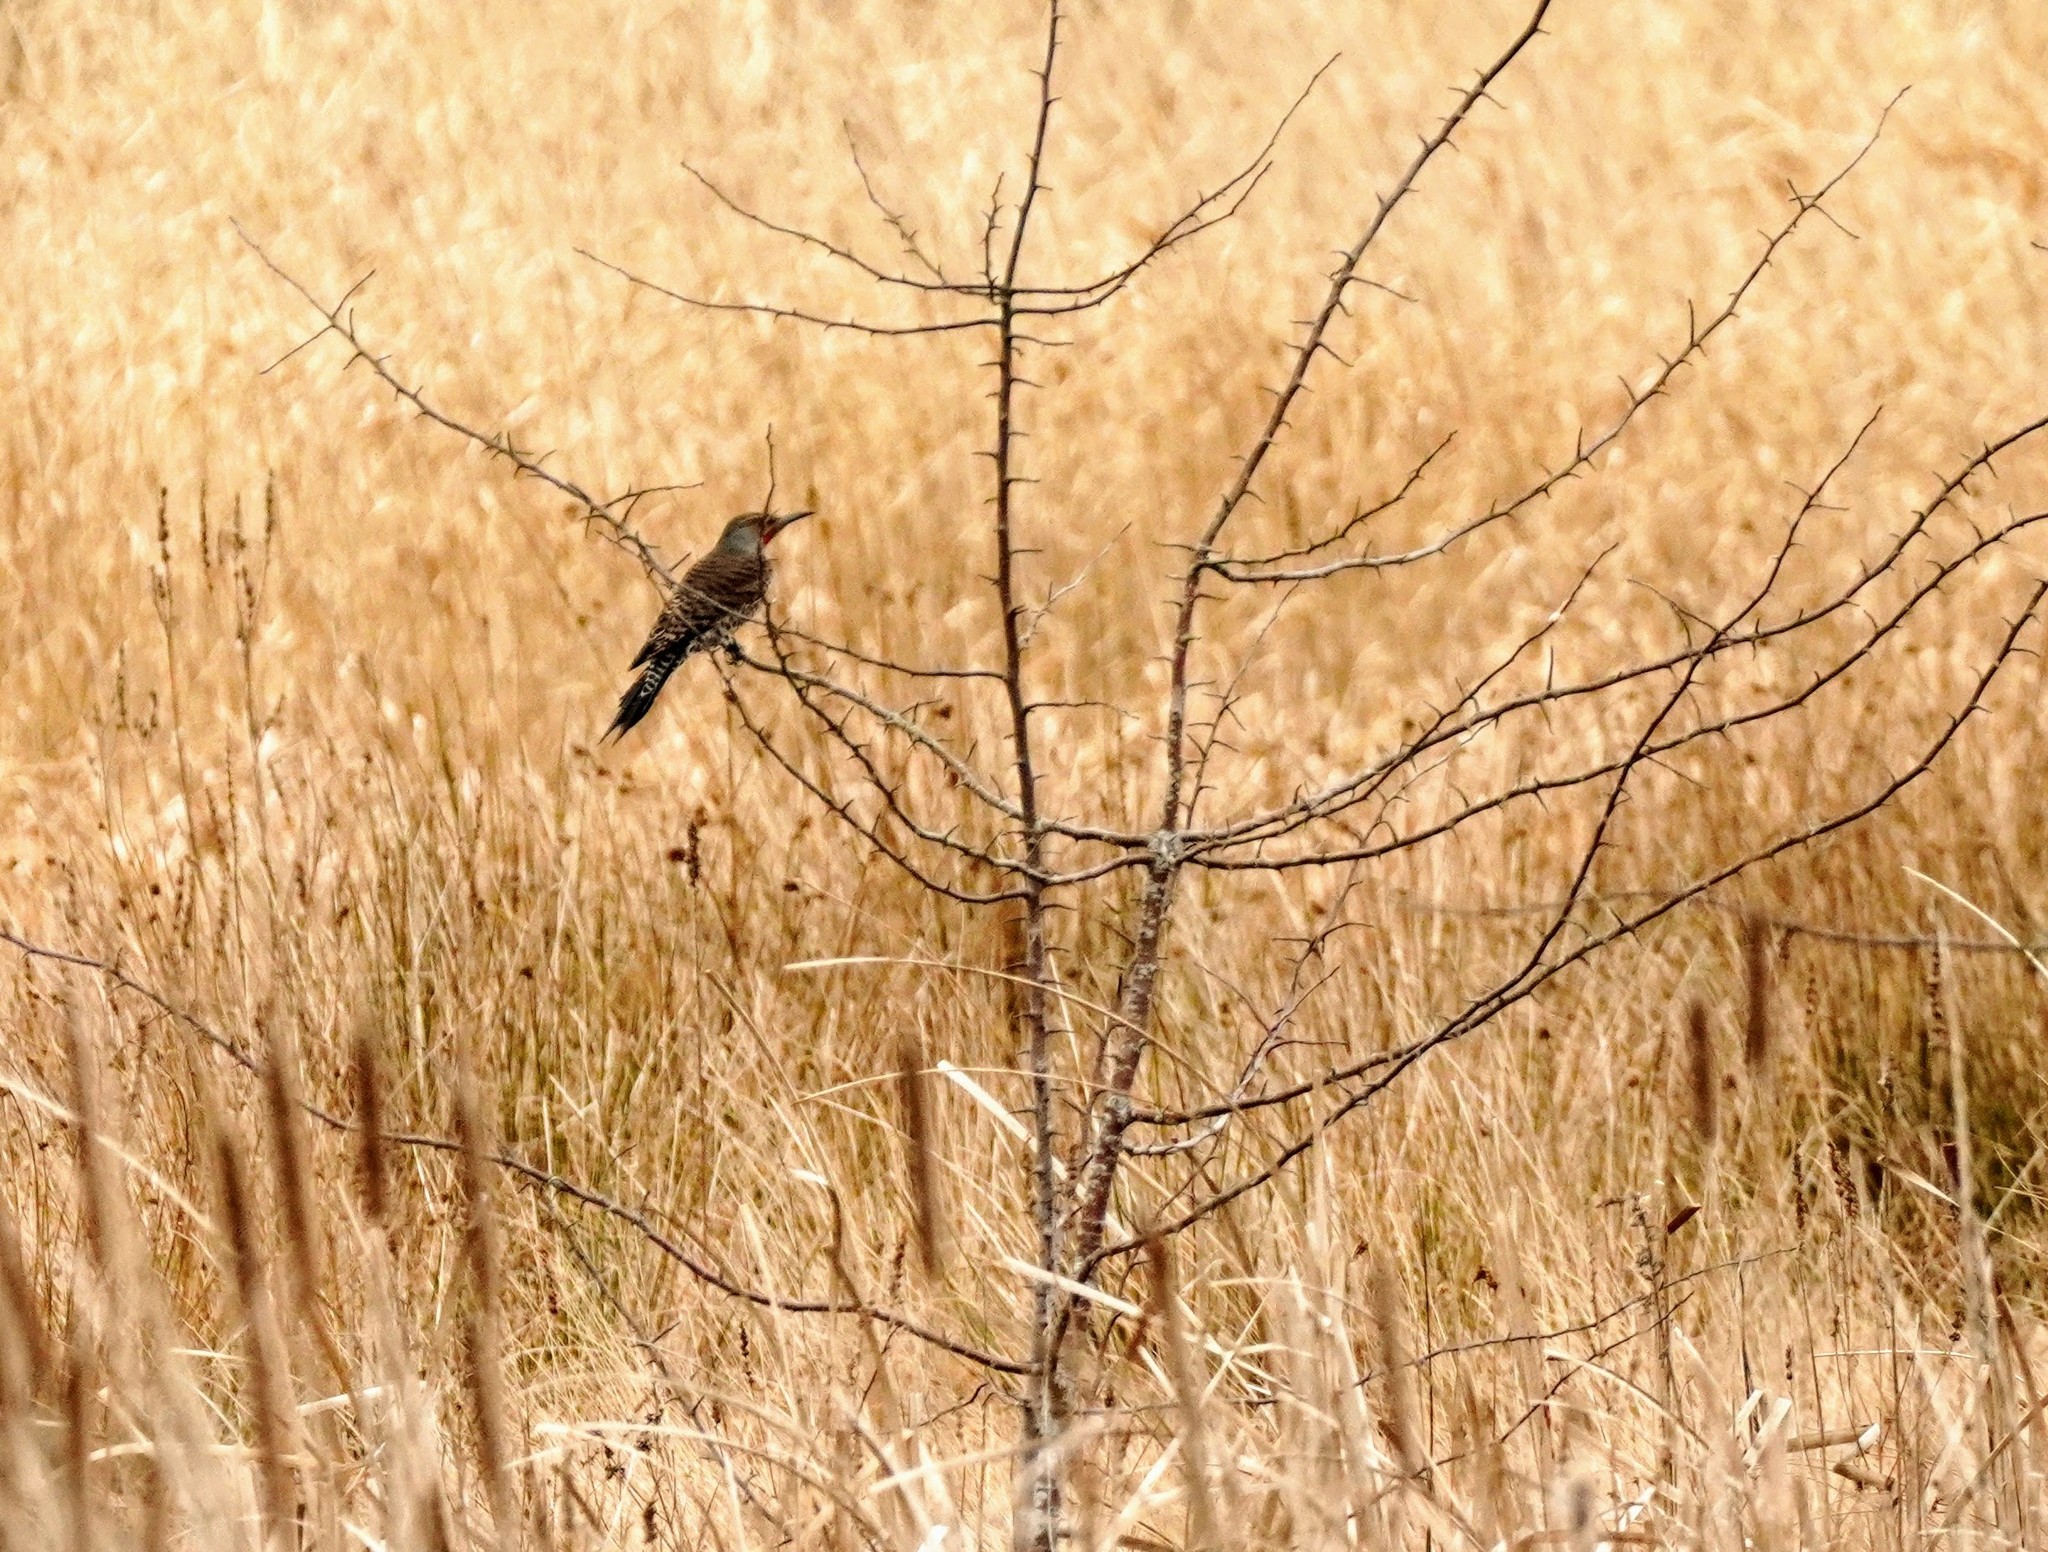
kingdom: Animalia
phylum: Chordata
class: Aves
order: Piciformes
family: Picidae
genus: Colaptes
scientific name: Colaptes auratus
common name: Northern flicker
